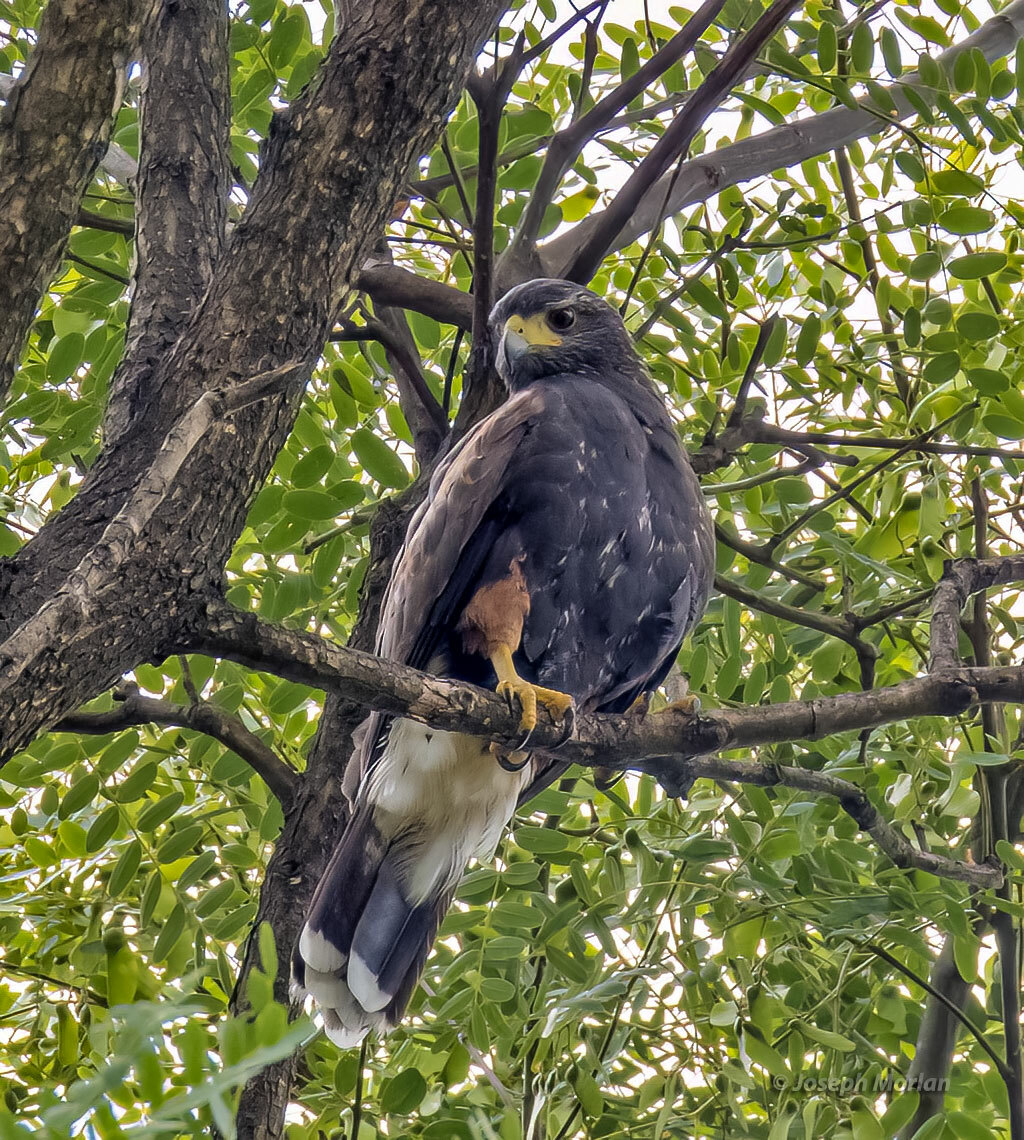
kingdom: Animalia
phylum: Chordata
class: Aves
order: Accipitriformes
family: Accipitridae
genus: Parabuteo
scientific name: Parabuteo unicinctus
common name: Harris's hawk
